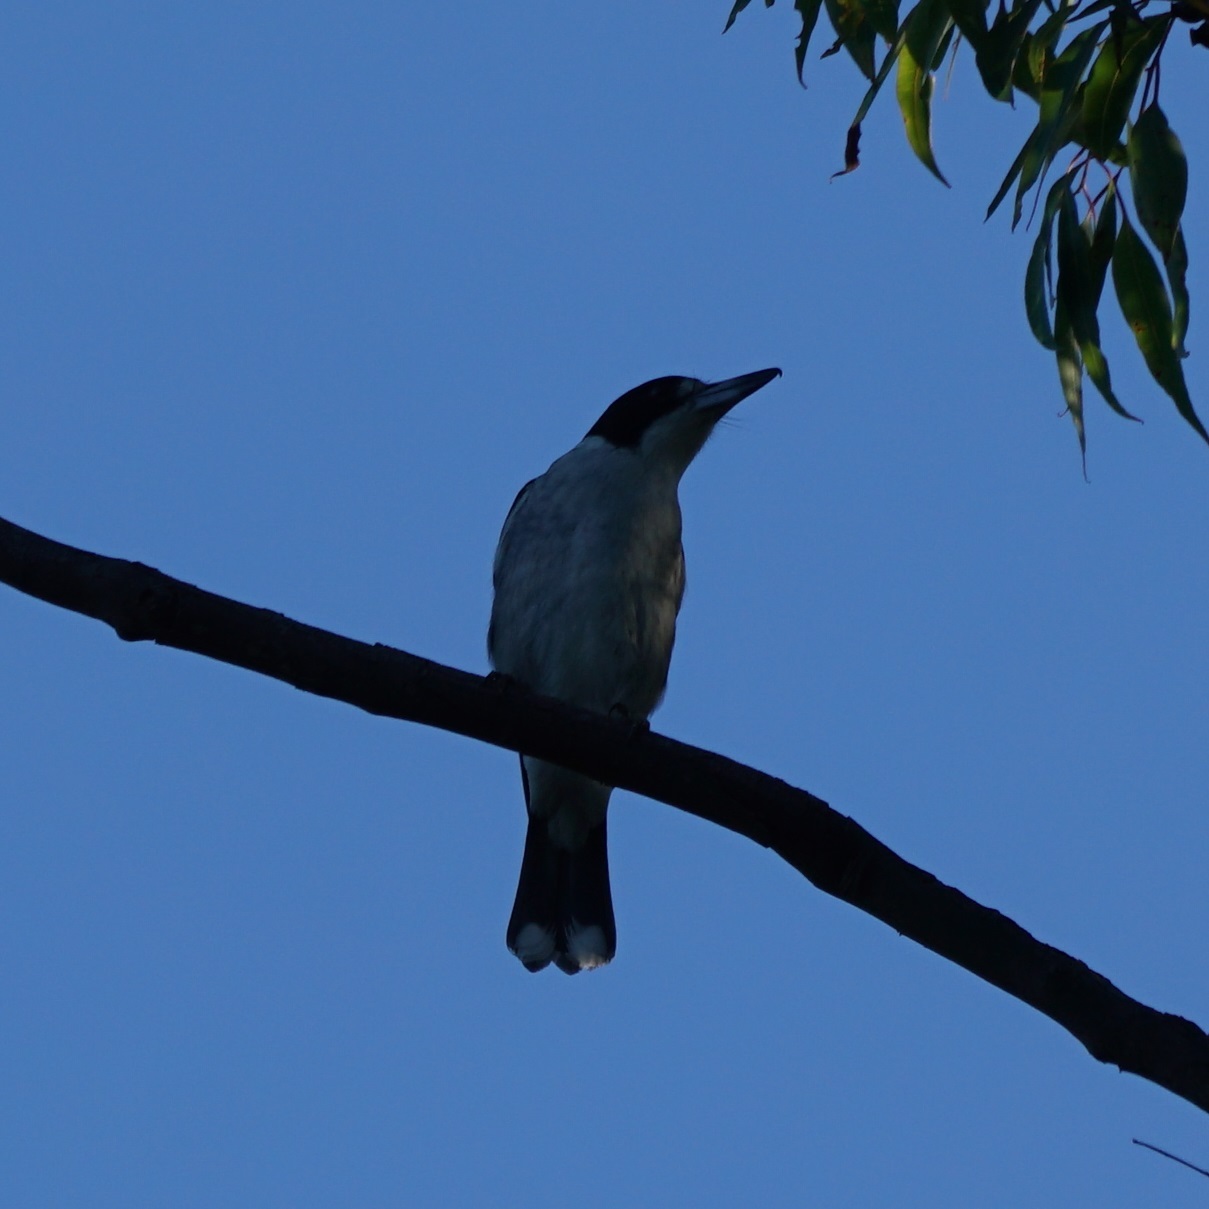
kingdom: Animalia
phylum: Chordata
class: Aves
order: Passeriformes
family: Cracticidae
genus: Cracticus
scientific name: Cracticus torquatus
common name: Grey butcherbird
